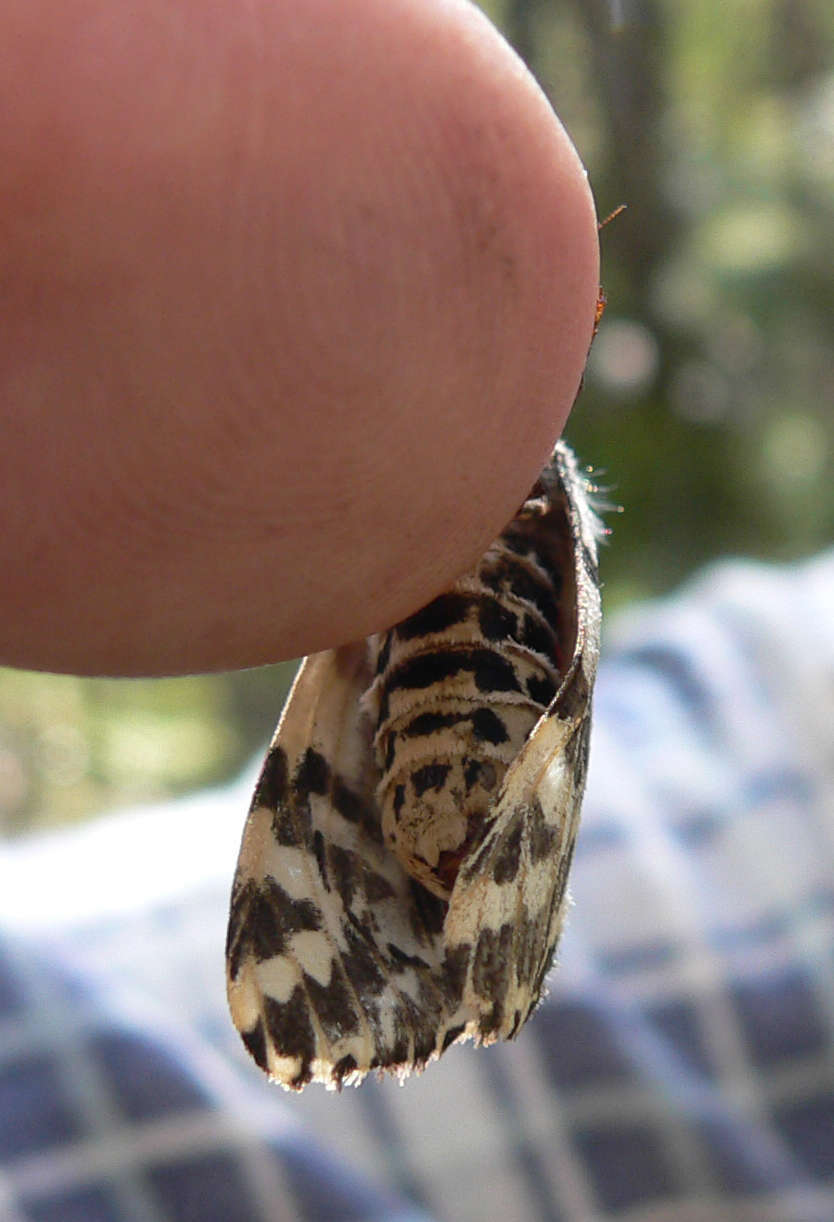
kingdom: Animalia
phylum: Arthropoda
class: Insecta
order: Lepidoptera
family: Erebidae
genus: Ardices
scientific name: Ardices glatignyi
